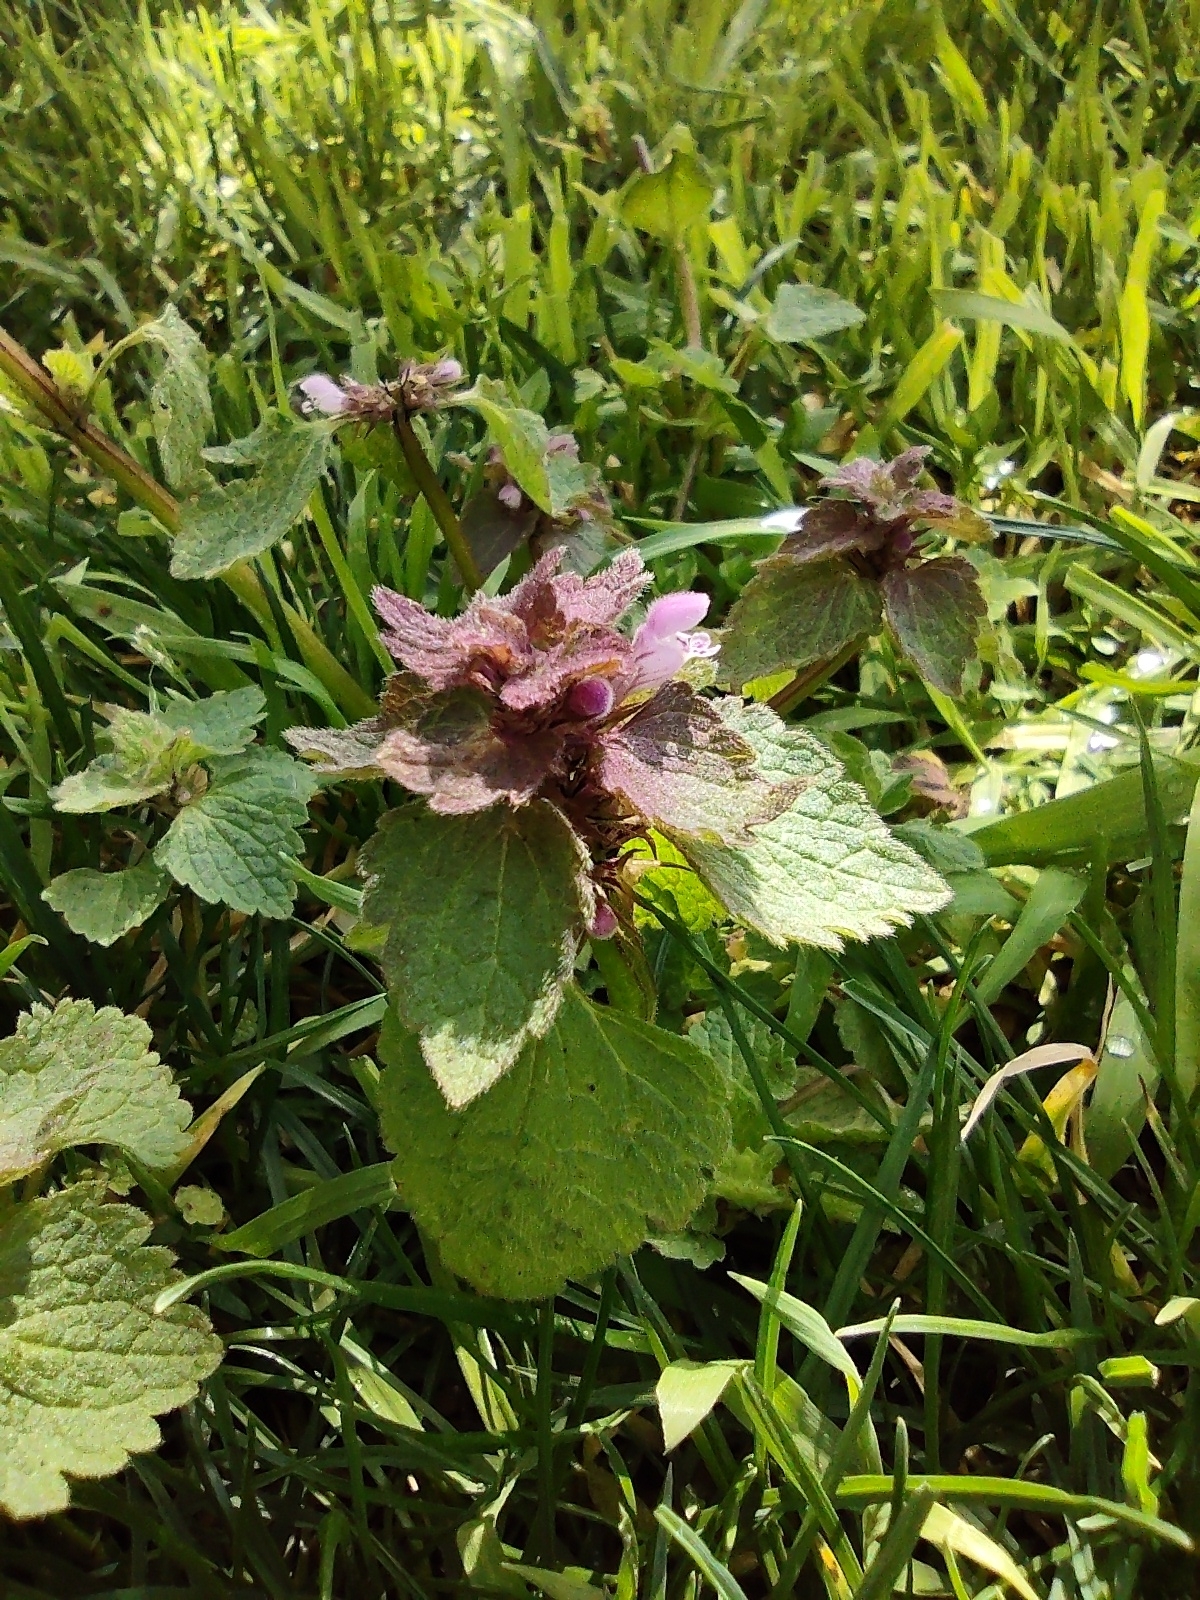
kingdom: Plantae
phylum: Tracheophyta
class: Magnoliopsida
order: Lamiales
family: Lamiaceae
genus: Lamium
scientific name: Lamium purpureum
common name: Red dead-nettle
